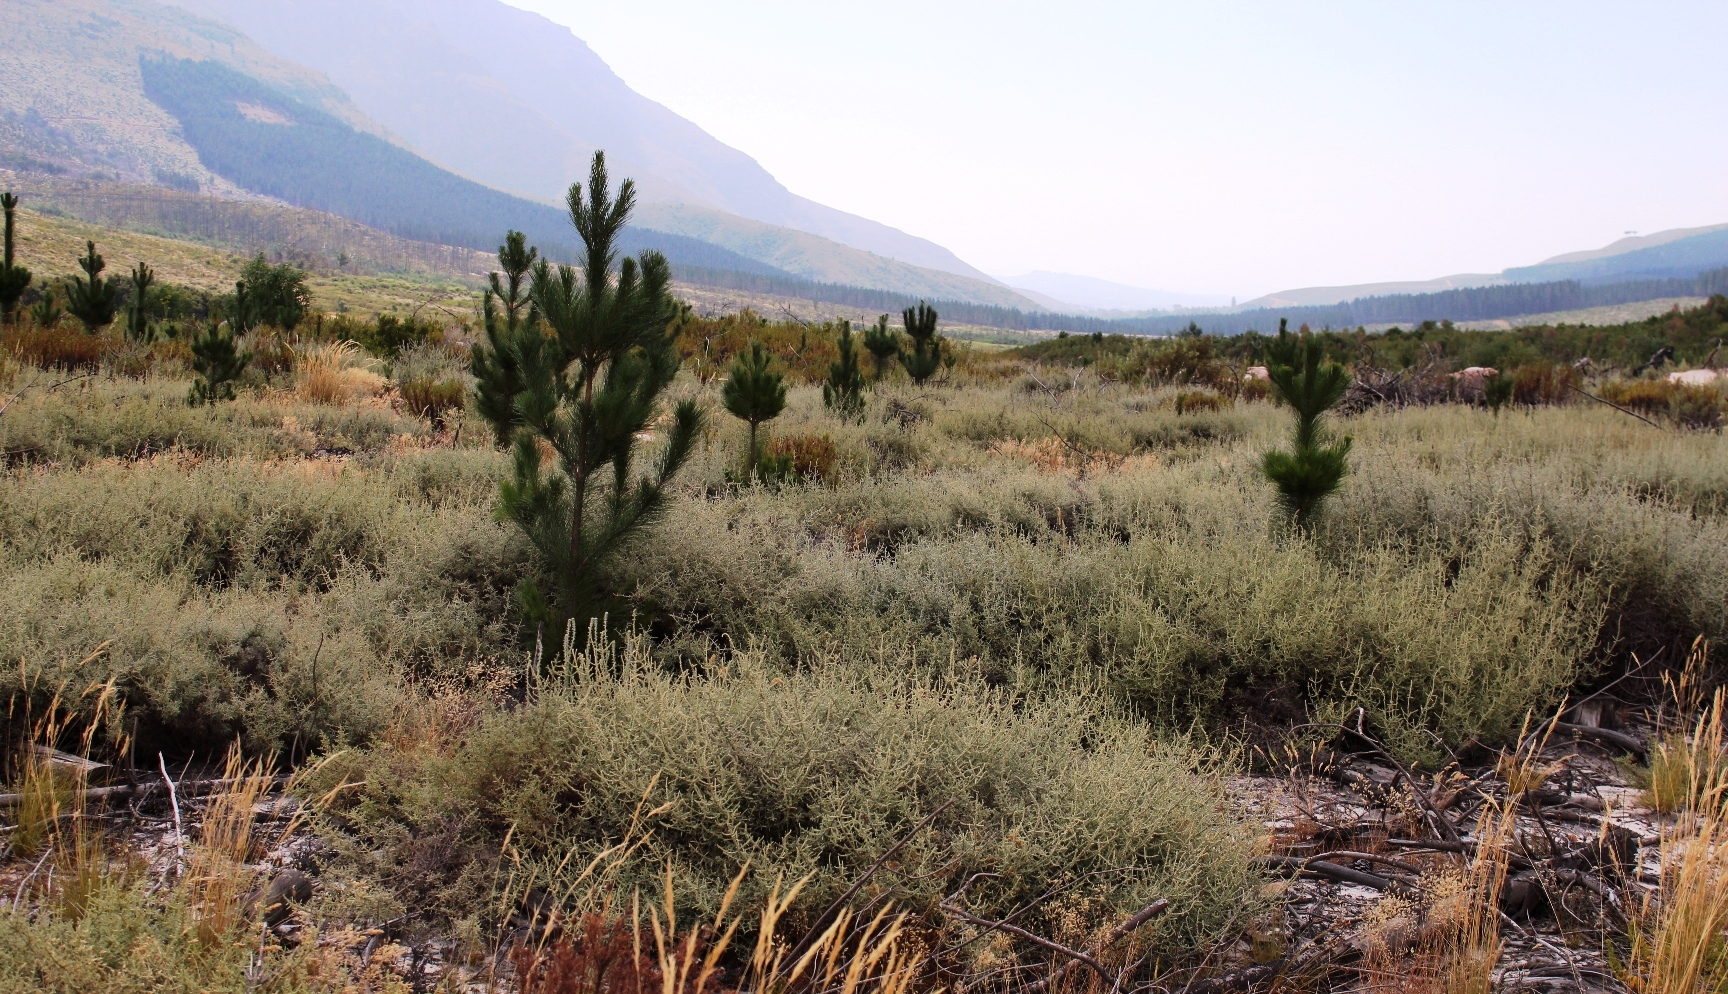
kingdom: Plantae
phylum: Tracheophyta
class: Magnoliopsida
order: Asterales
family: Asteraceae
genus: Seriphium
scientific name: Seriphium plumosum
